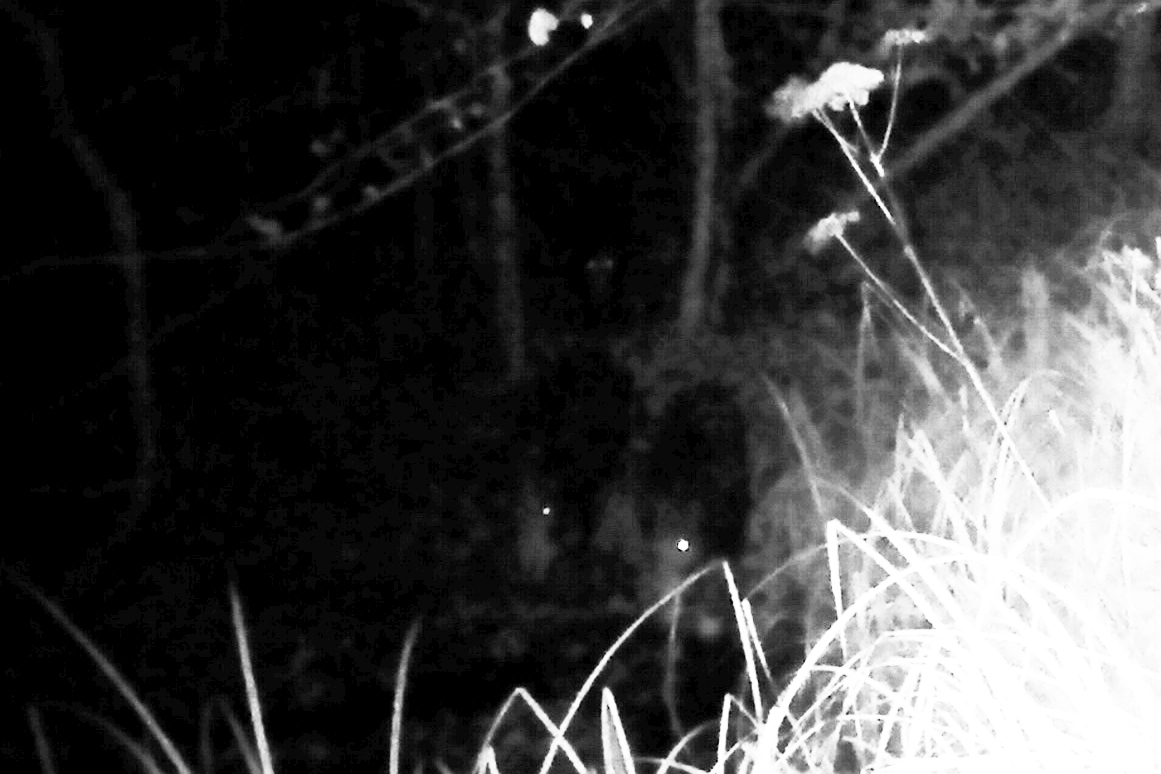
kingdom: Animalia
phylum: Chordata
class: Mammalia
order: Artiodactyla
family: Suidae
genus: Sus
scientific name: Sus scrofa
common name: Wild boar
